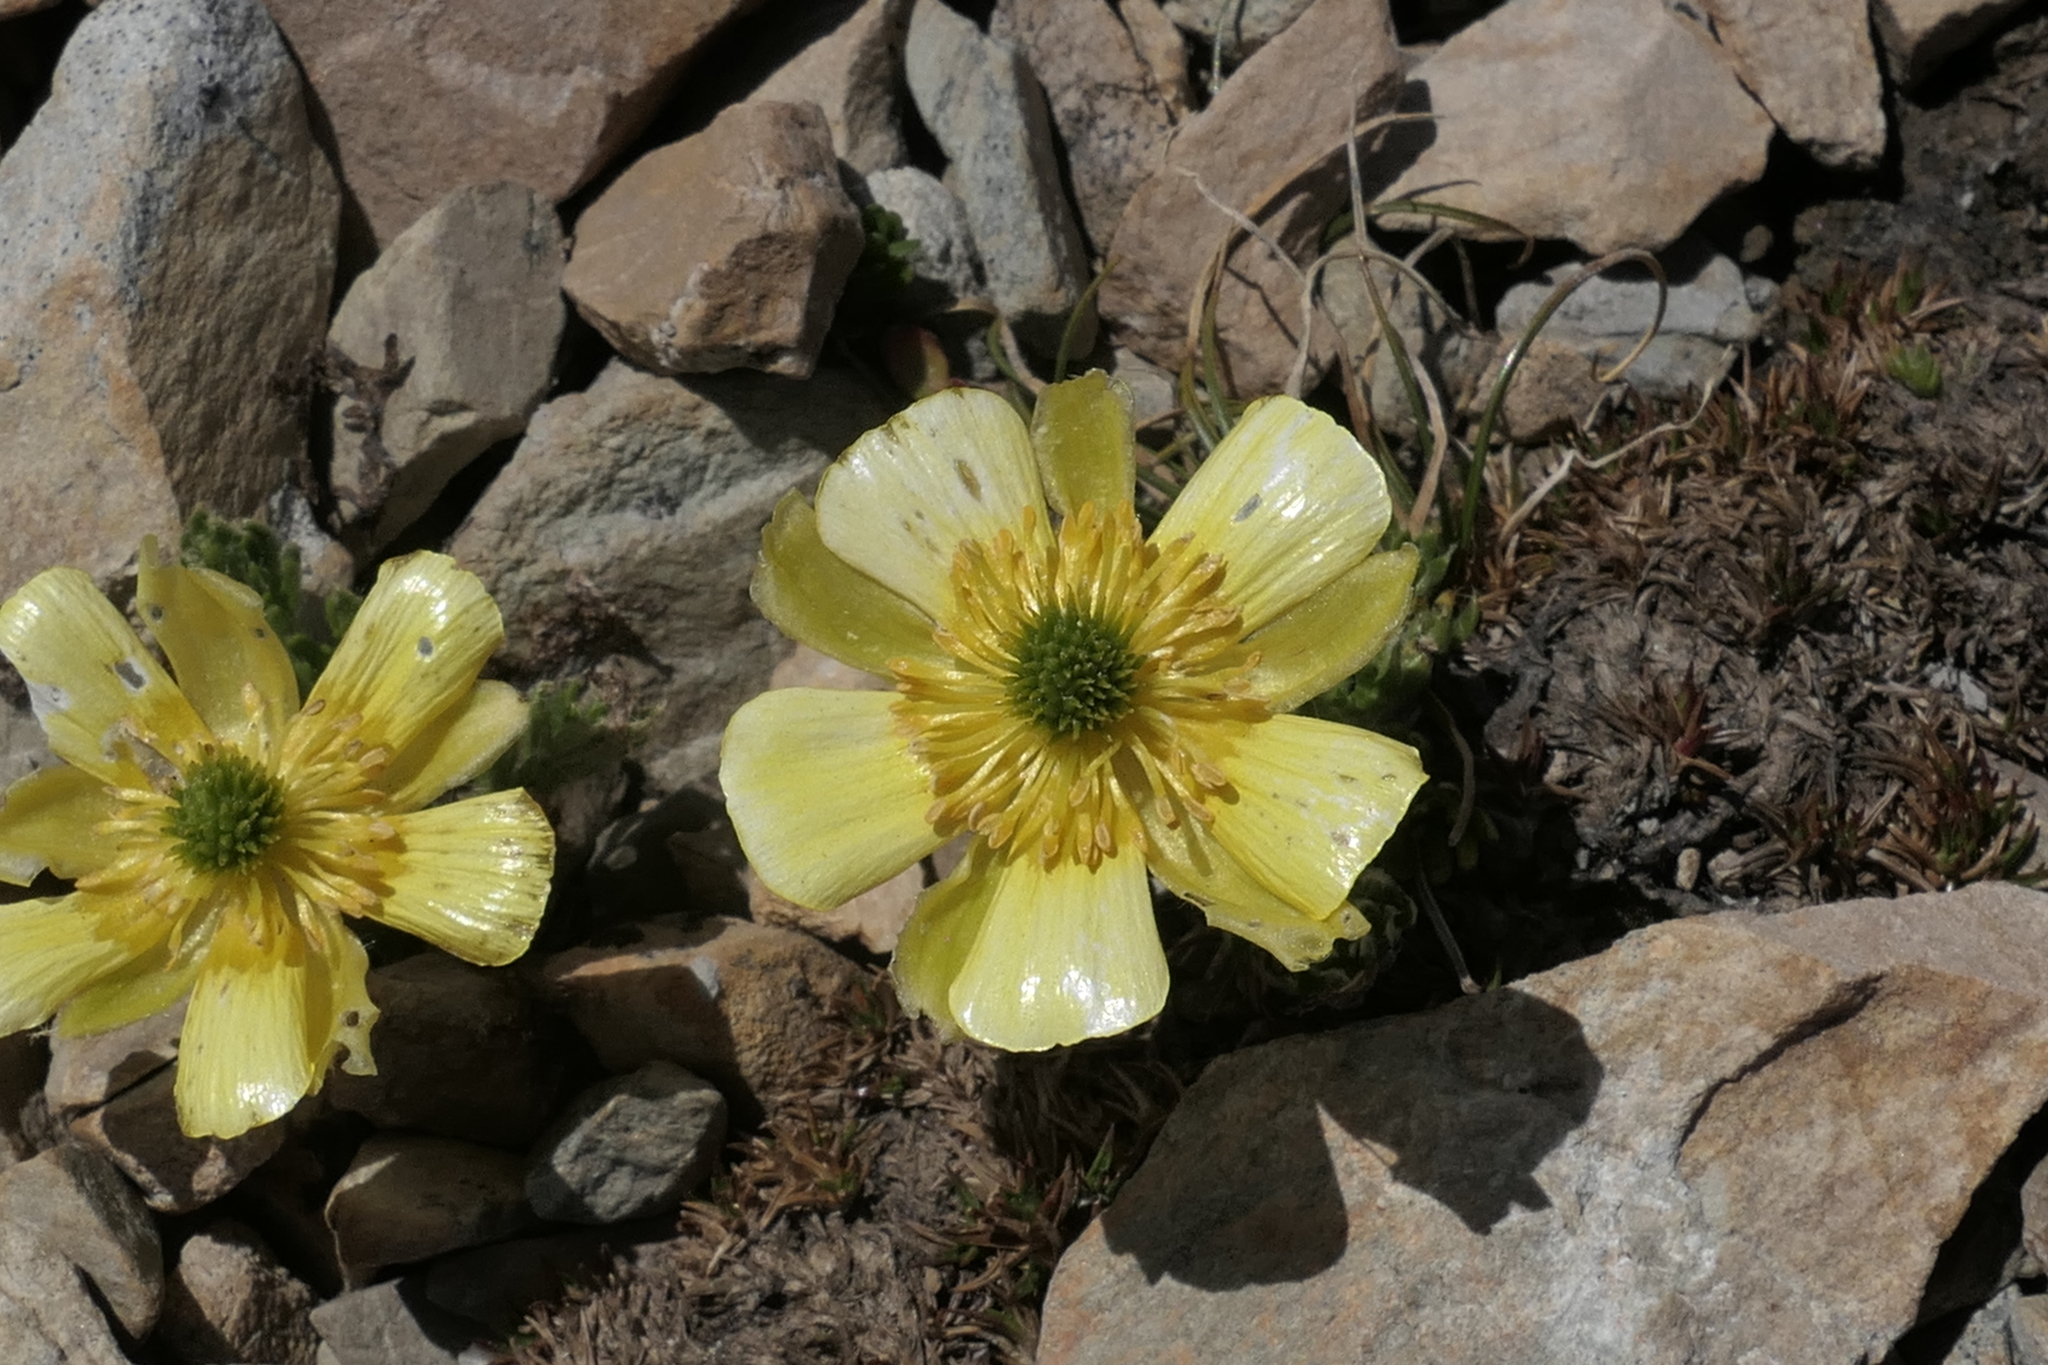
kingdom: Plantae
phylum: Tracheophyta
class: Magnoliopsida
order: Ranunculales
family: Ranunculaceae
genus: Ranunculus
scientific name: Ranunculus sericophyllus
